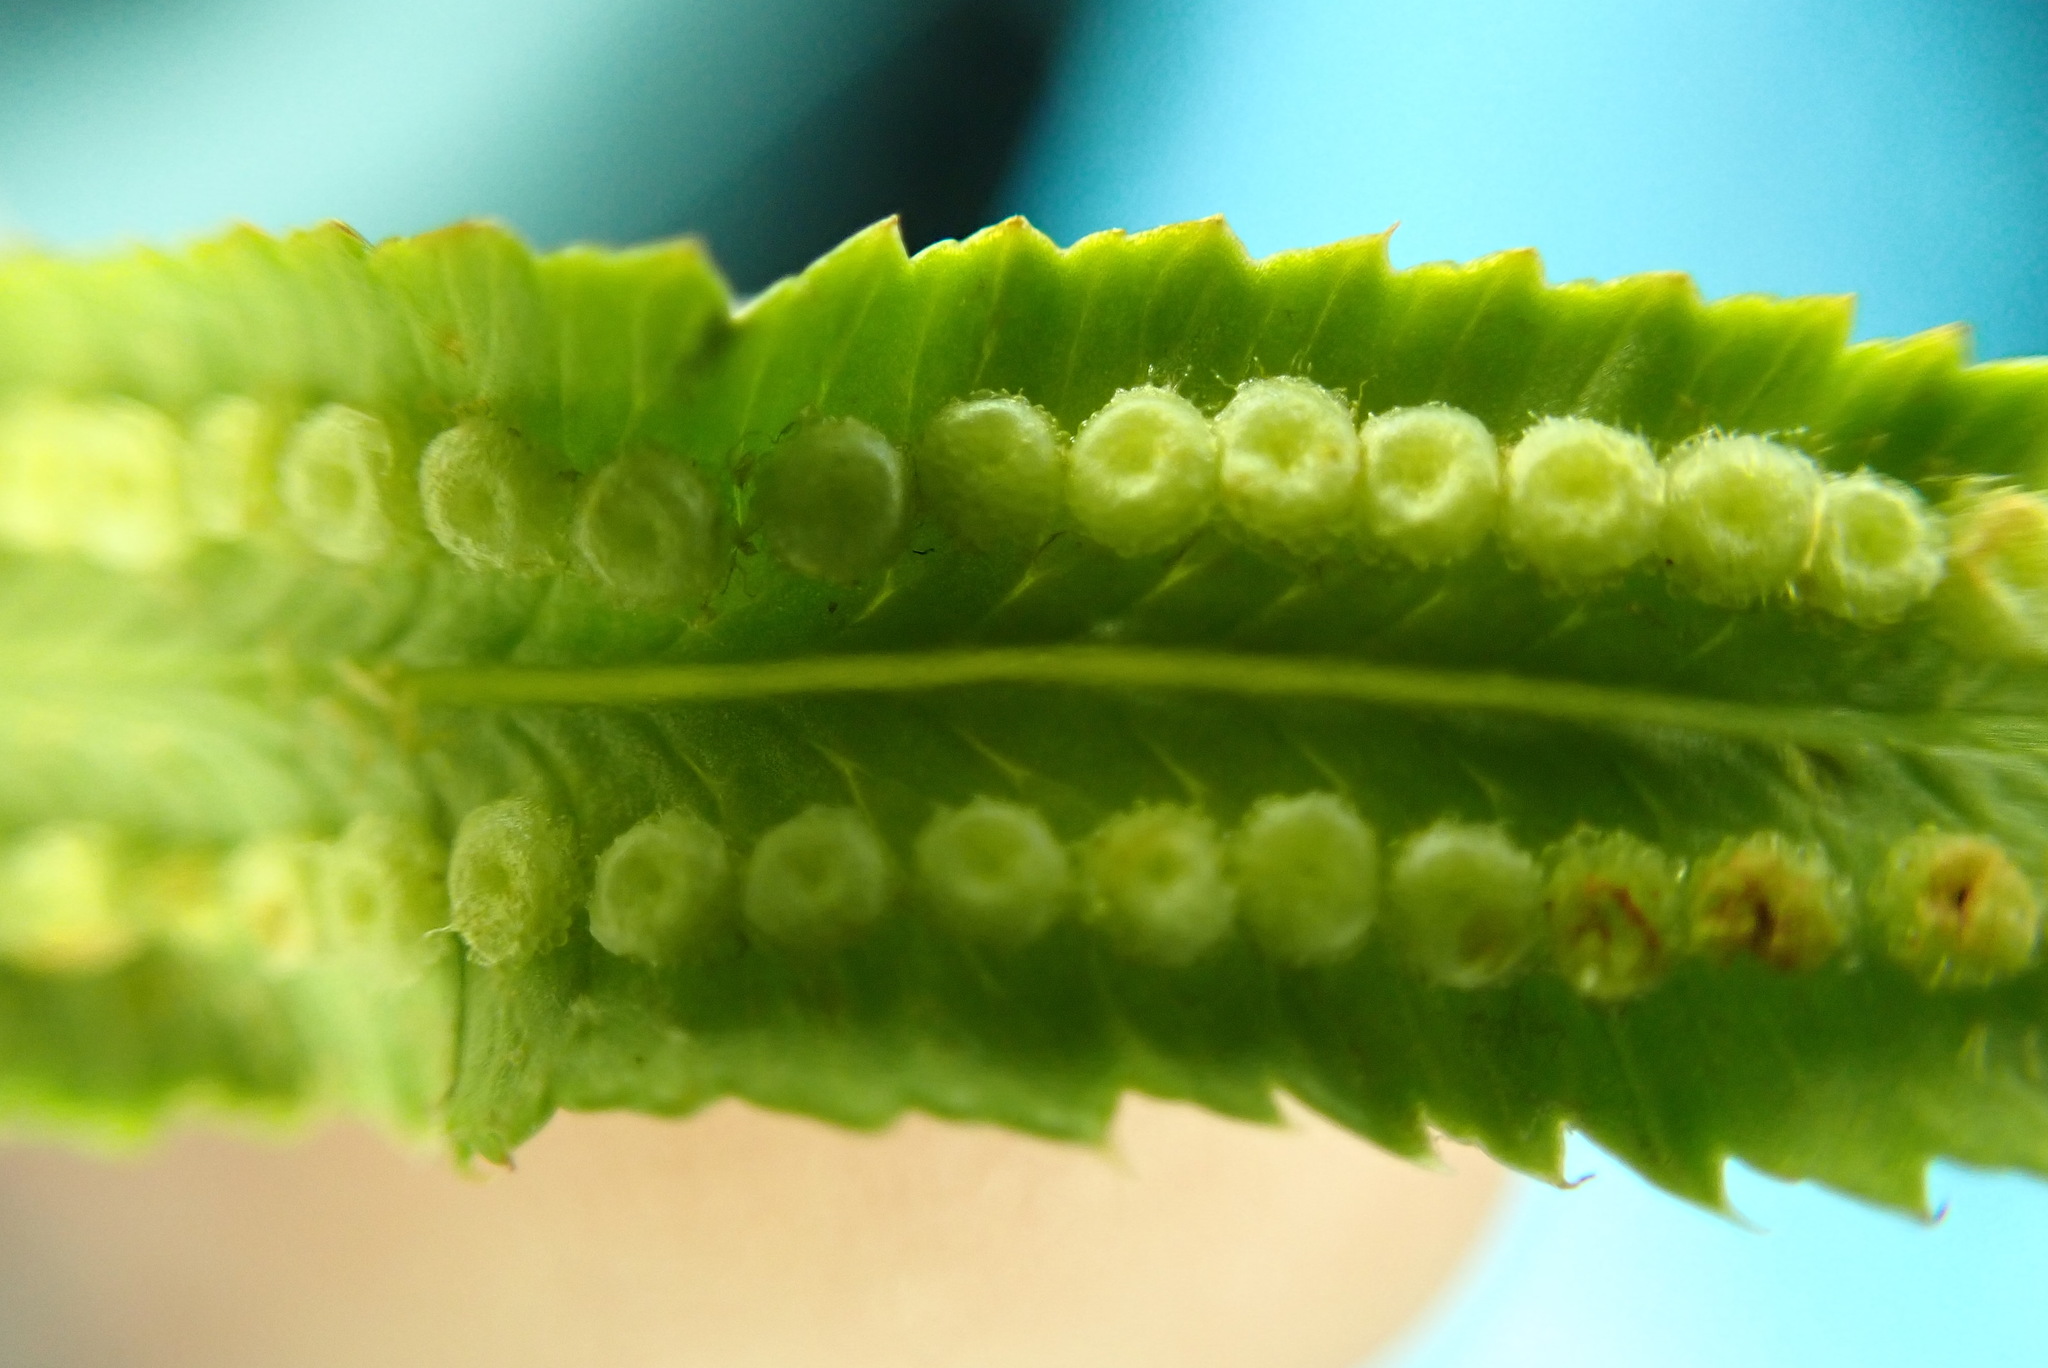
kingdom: Plantae
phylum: Tracheophyta
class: Polypodiopsida
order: Polypodiales
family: Dryopteridaceae
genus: Polystichum
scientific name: Polystichum munitum
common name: Western sword-fern
